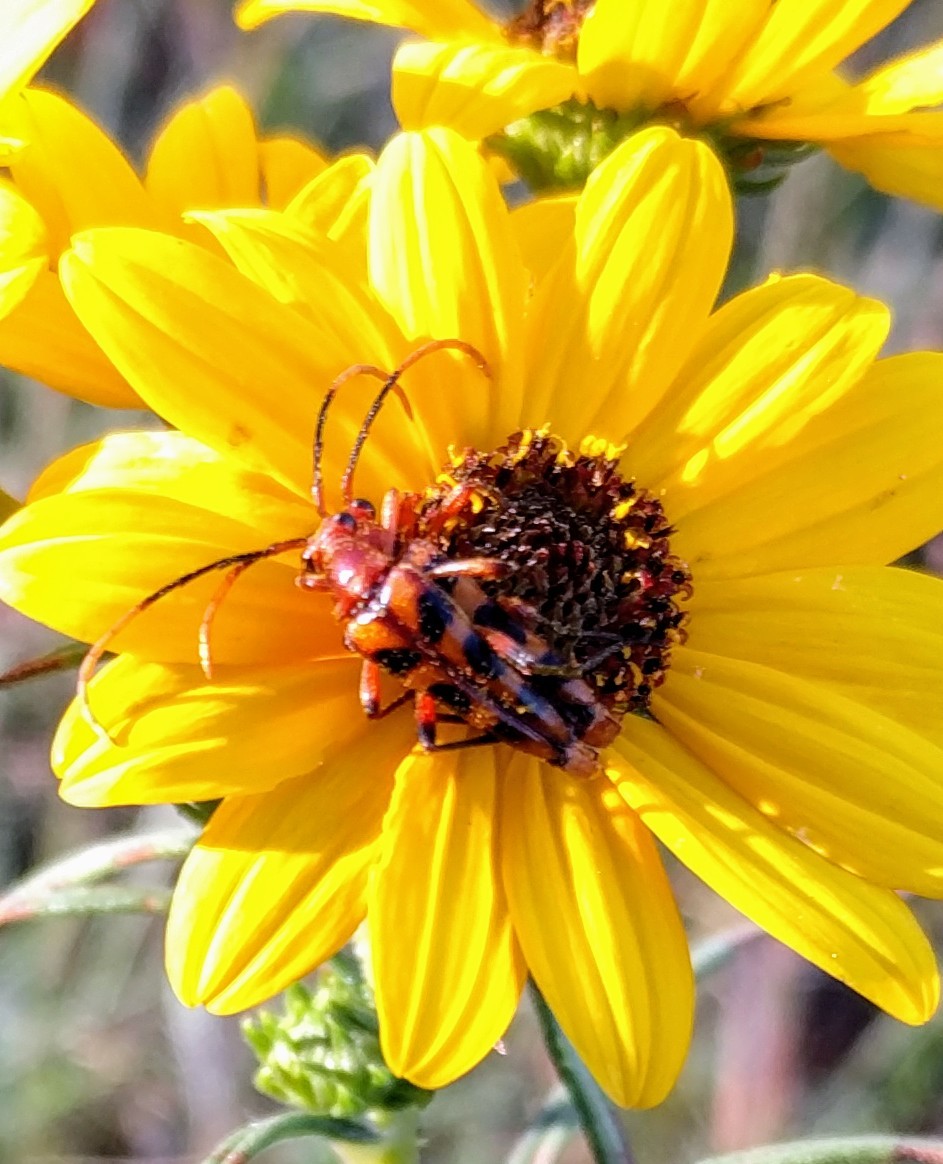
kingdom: Animalia
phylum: Arthropoda
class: Insecta
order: Coleoptera
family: Cerambycidae
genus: Strangalia
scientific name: Strangalia sexnotata
